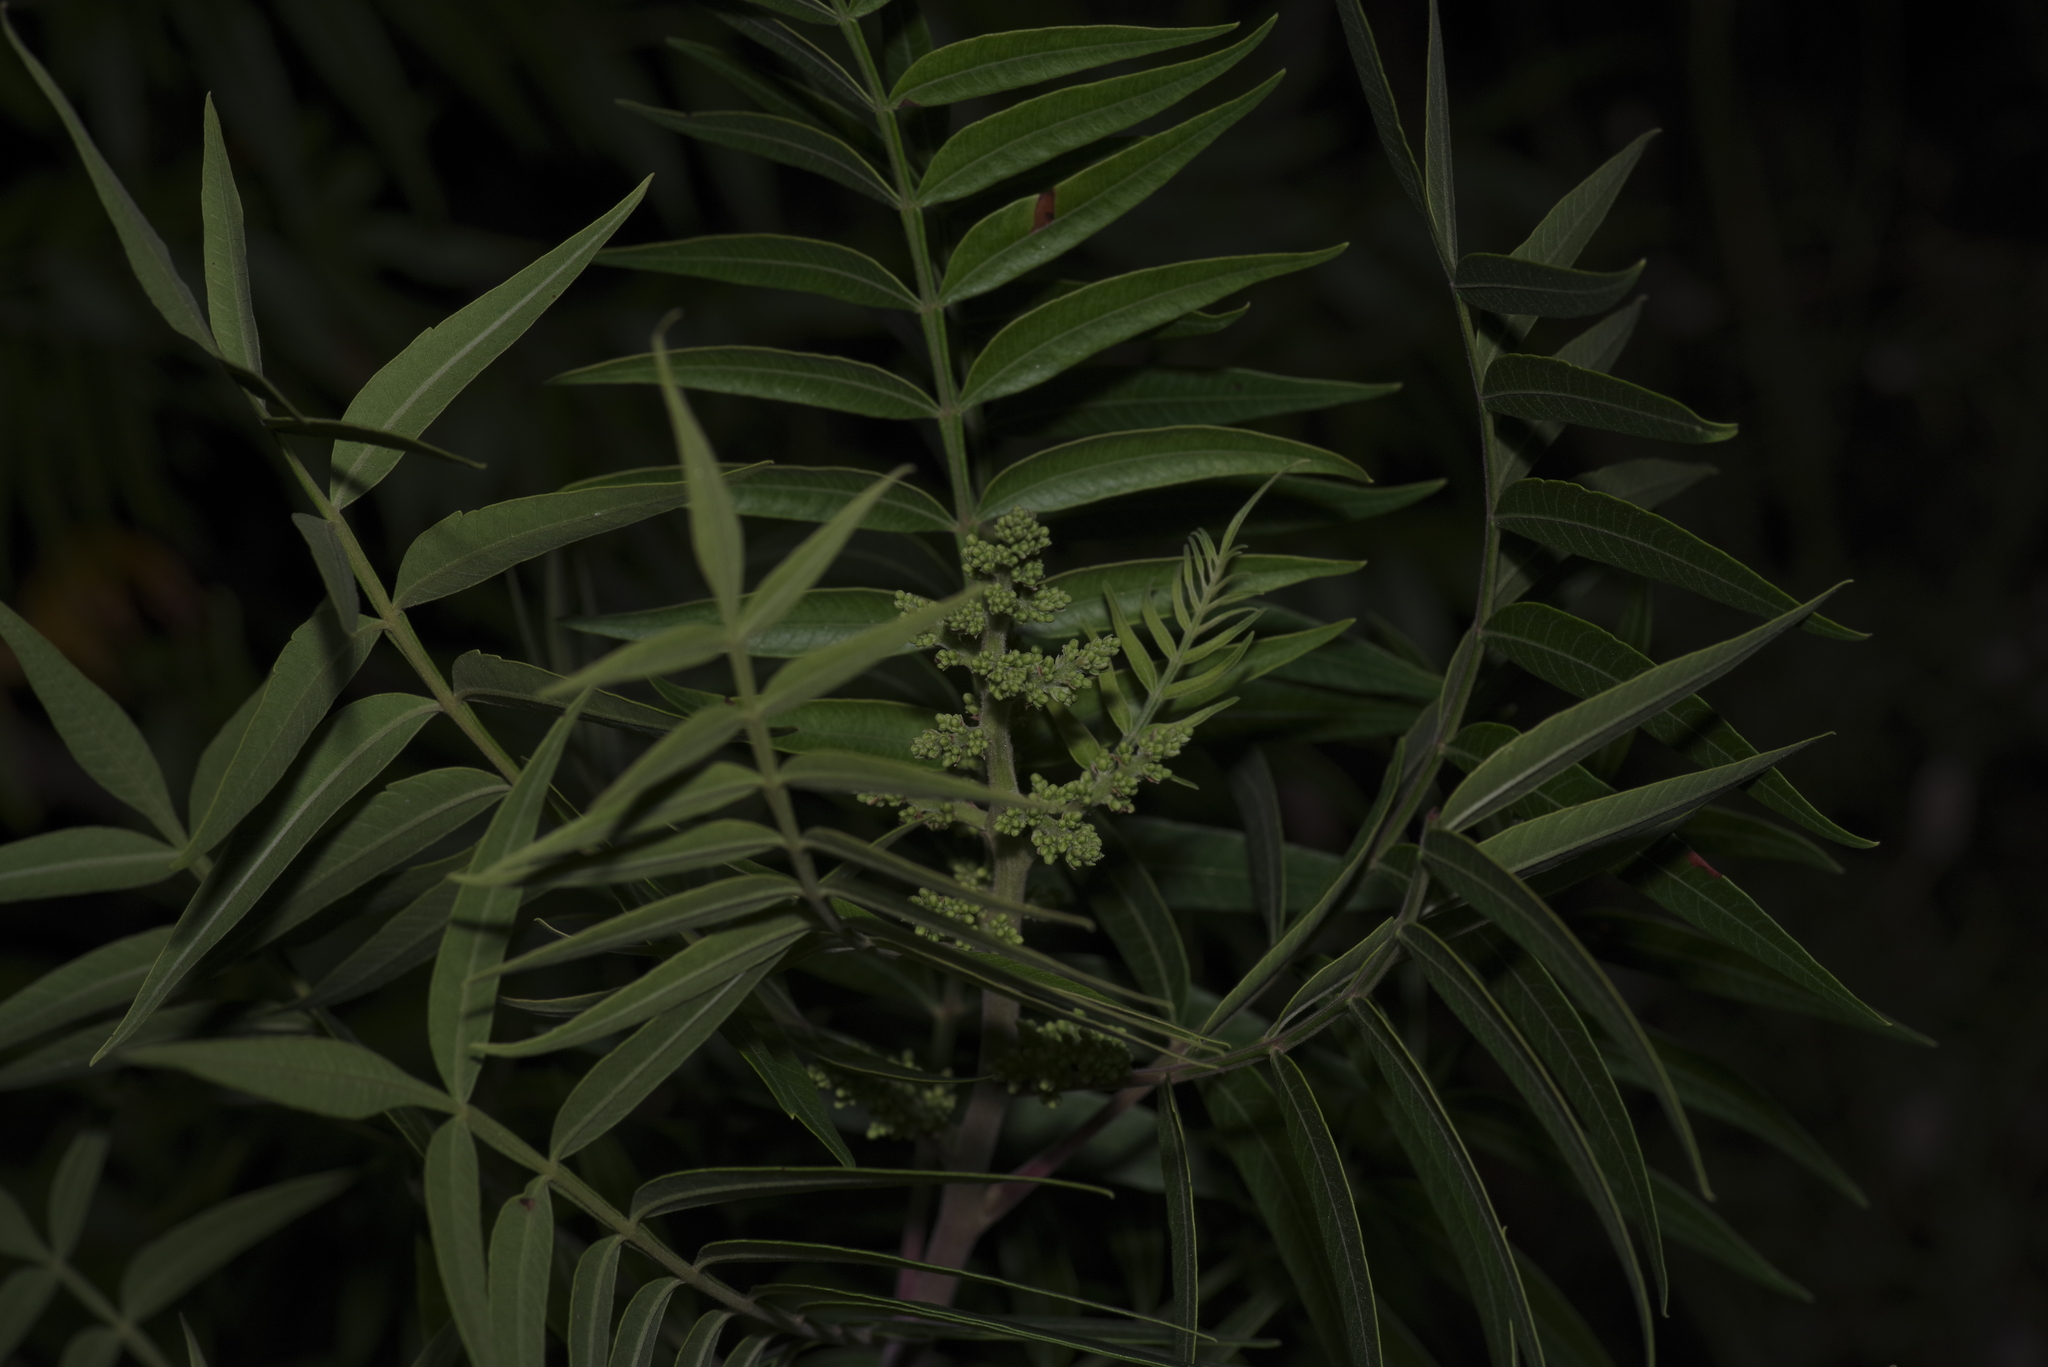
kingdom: Plantae
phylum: Tracheophyta
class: Magnoliopsida
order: Sapindales
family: Anacardiaceae
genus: Rhus
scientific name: Rhus lanceolata
